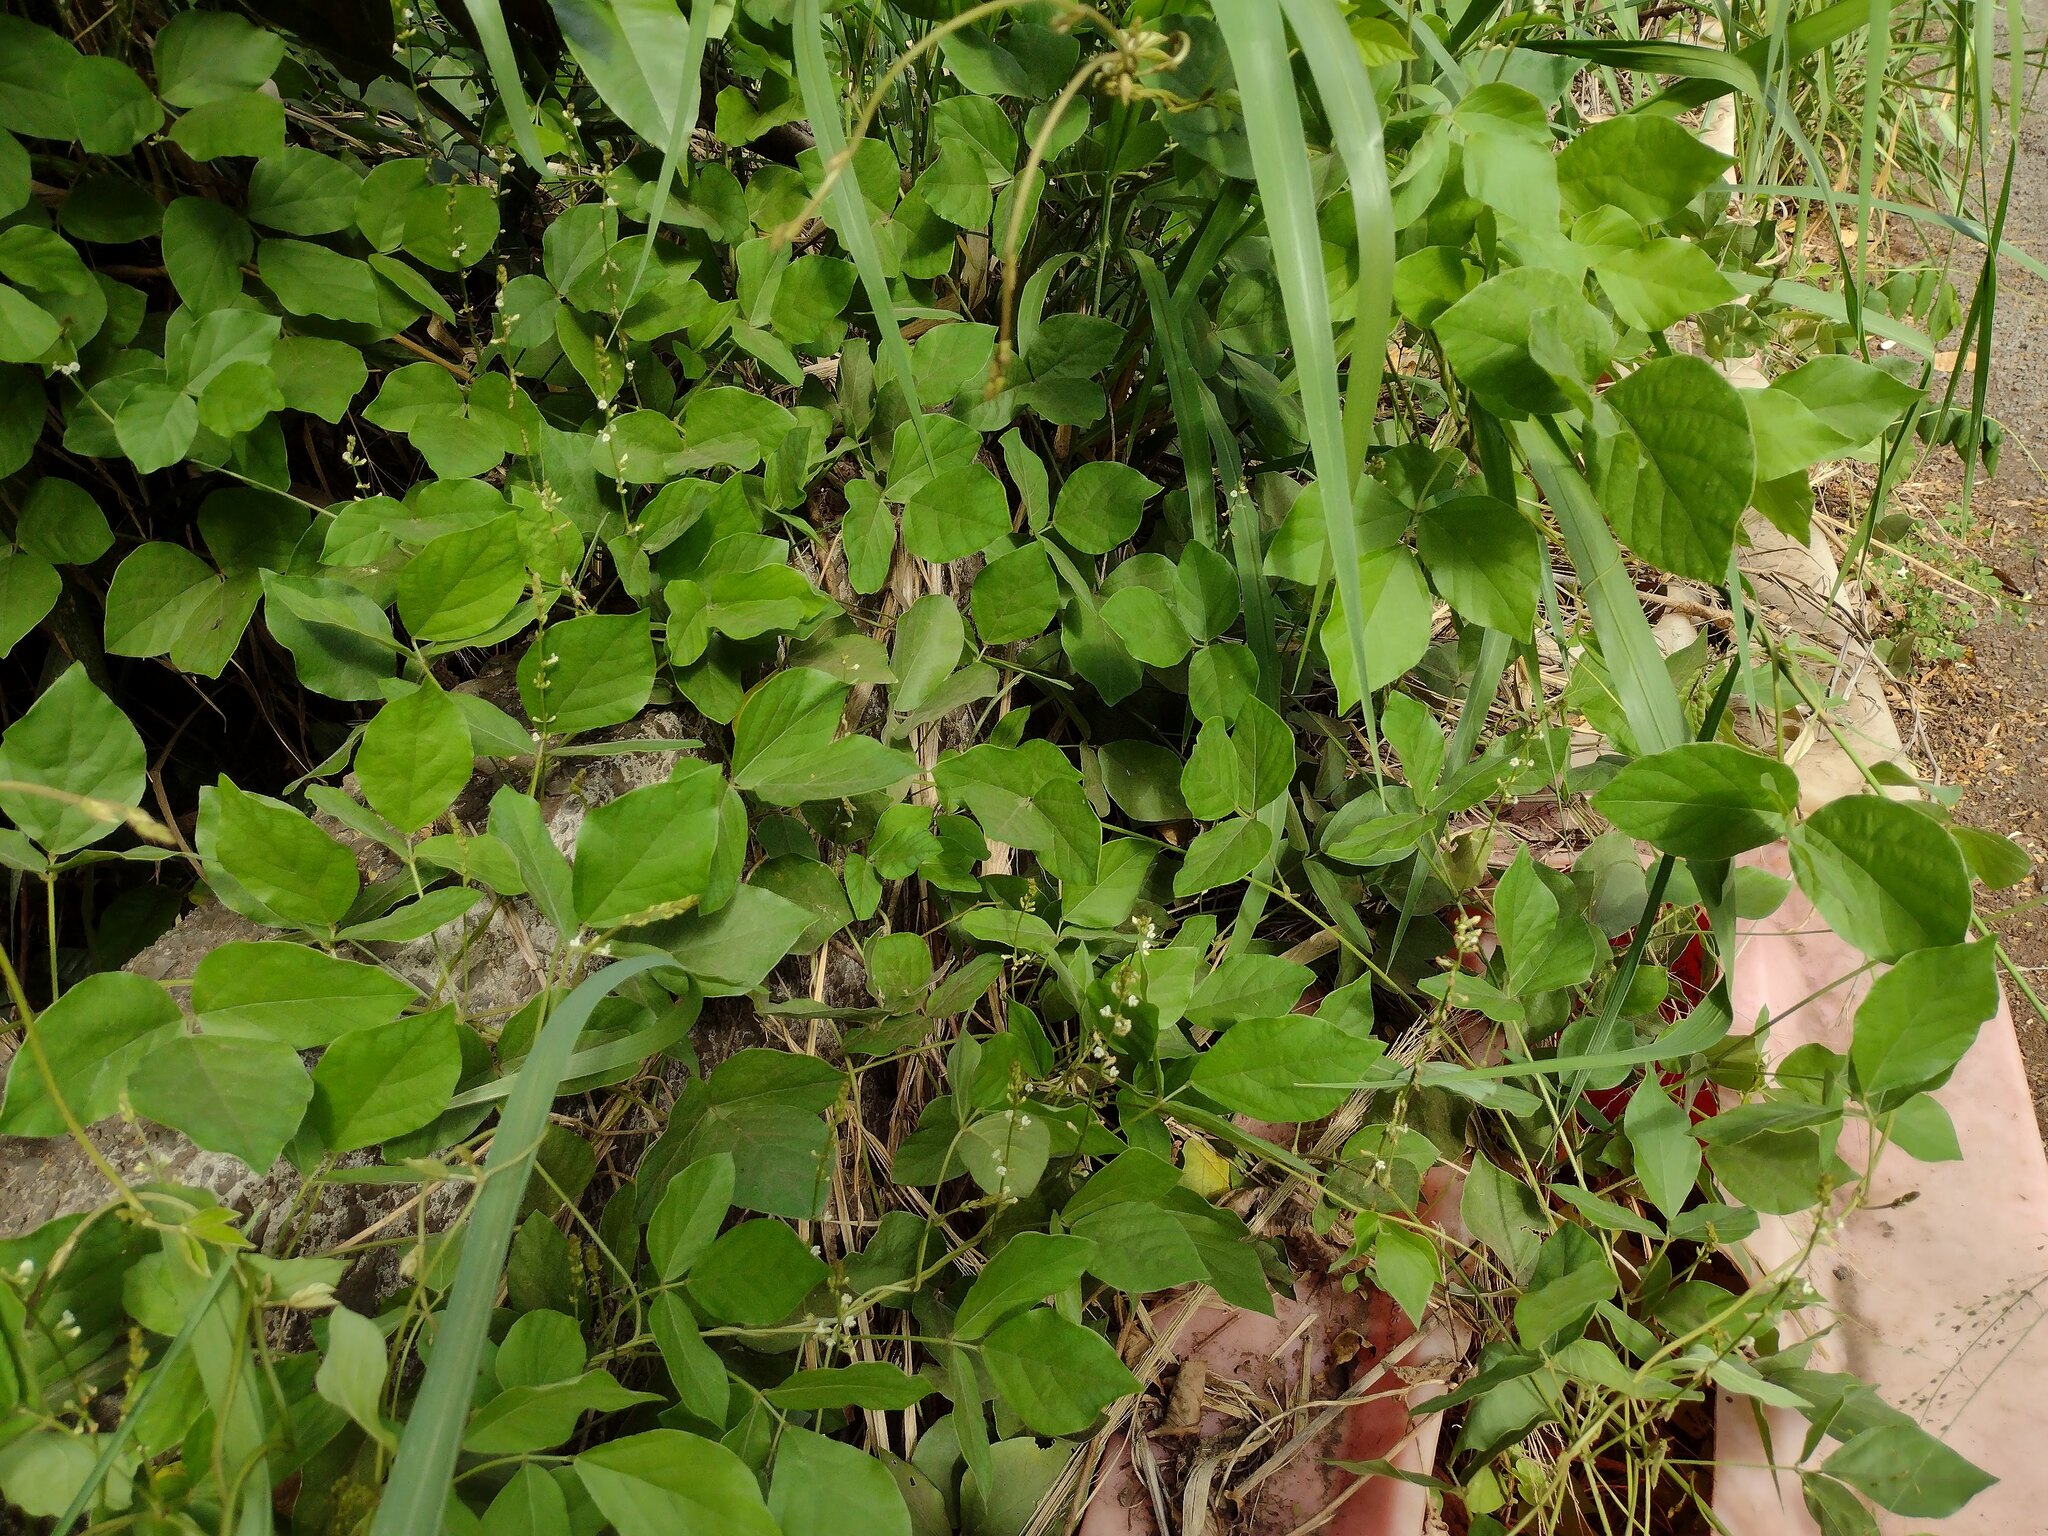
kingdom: Plantae
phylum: Tracheophyta
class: Magnoliopsida
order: Fabales
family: Fabaceae
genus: Neonotonia
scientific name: Neonotonia wightii
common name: Perennial soybean
